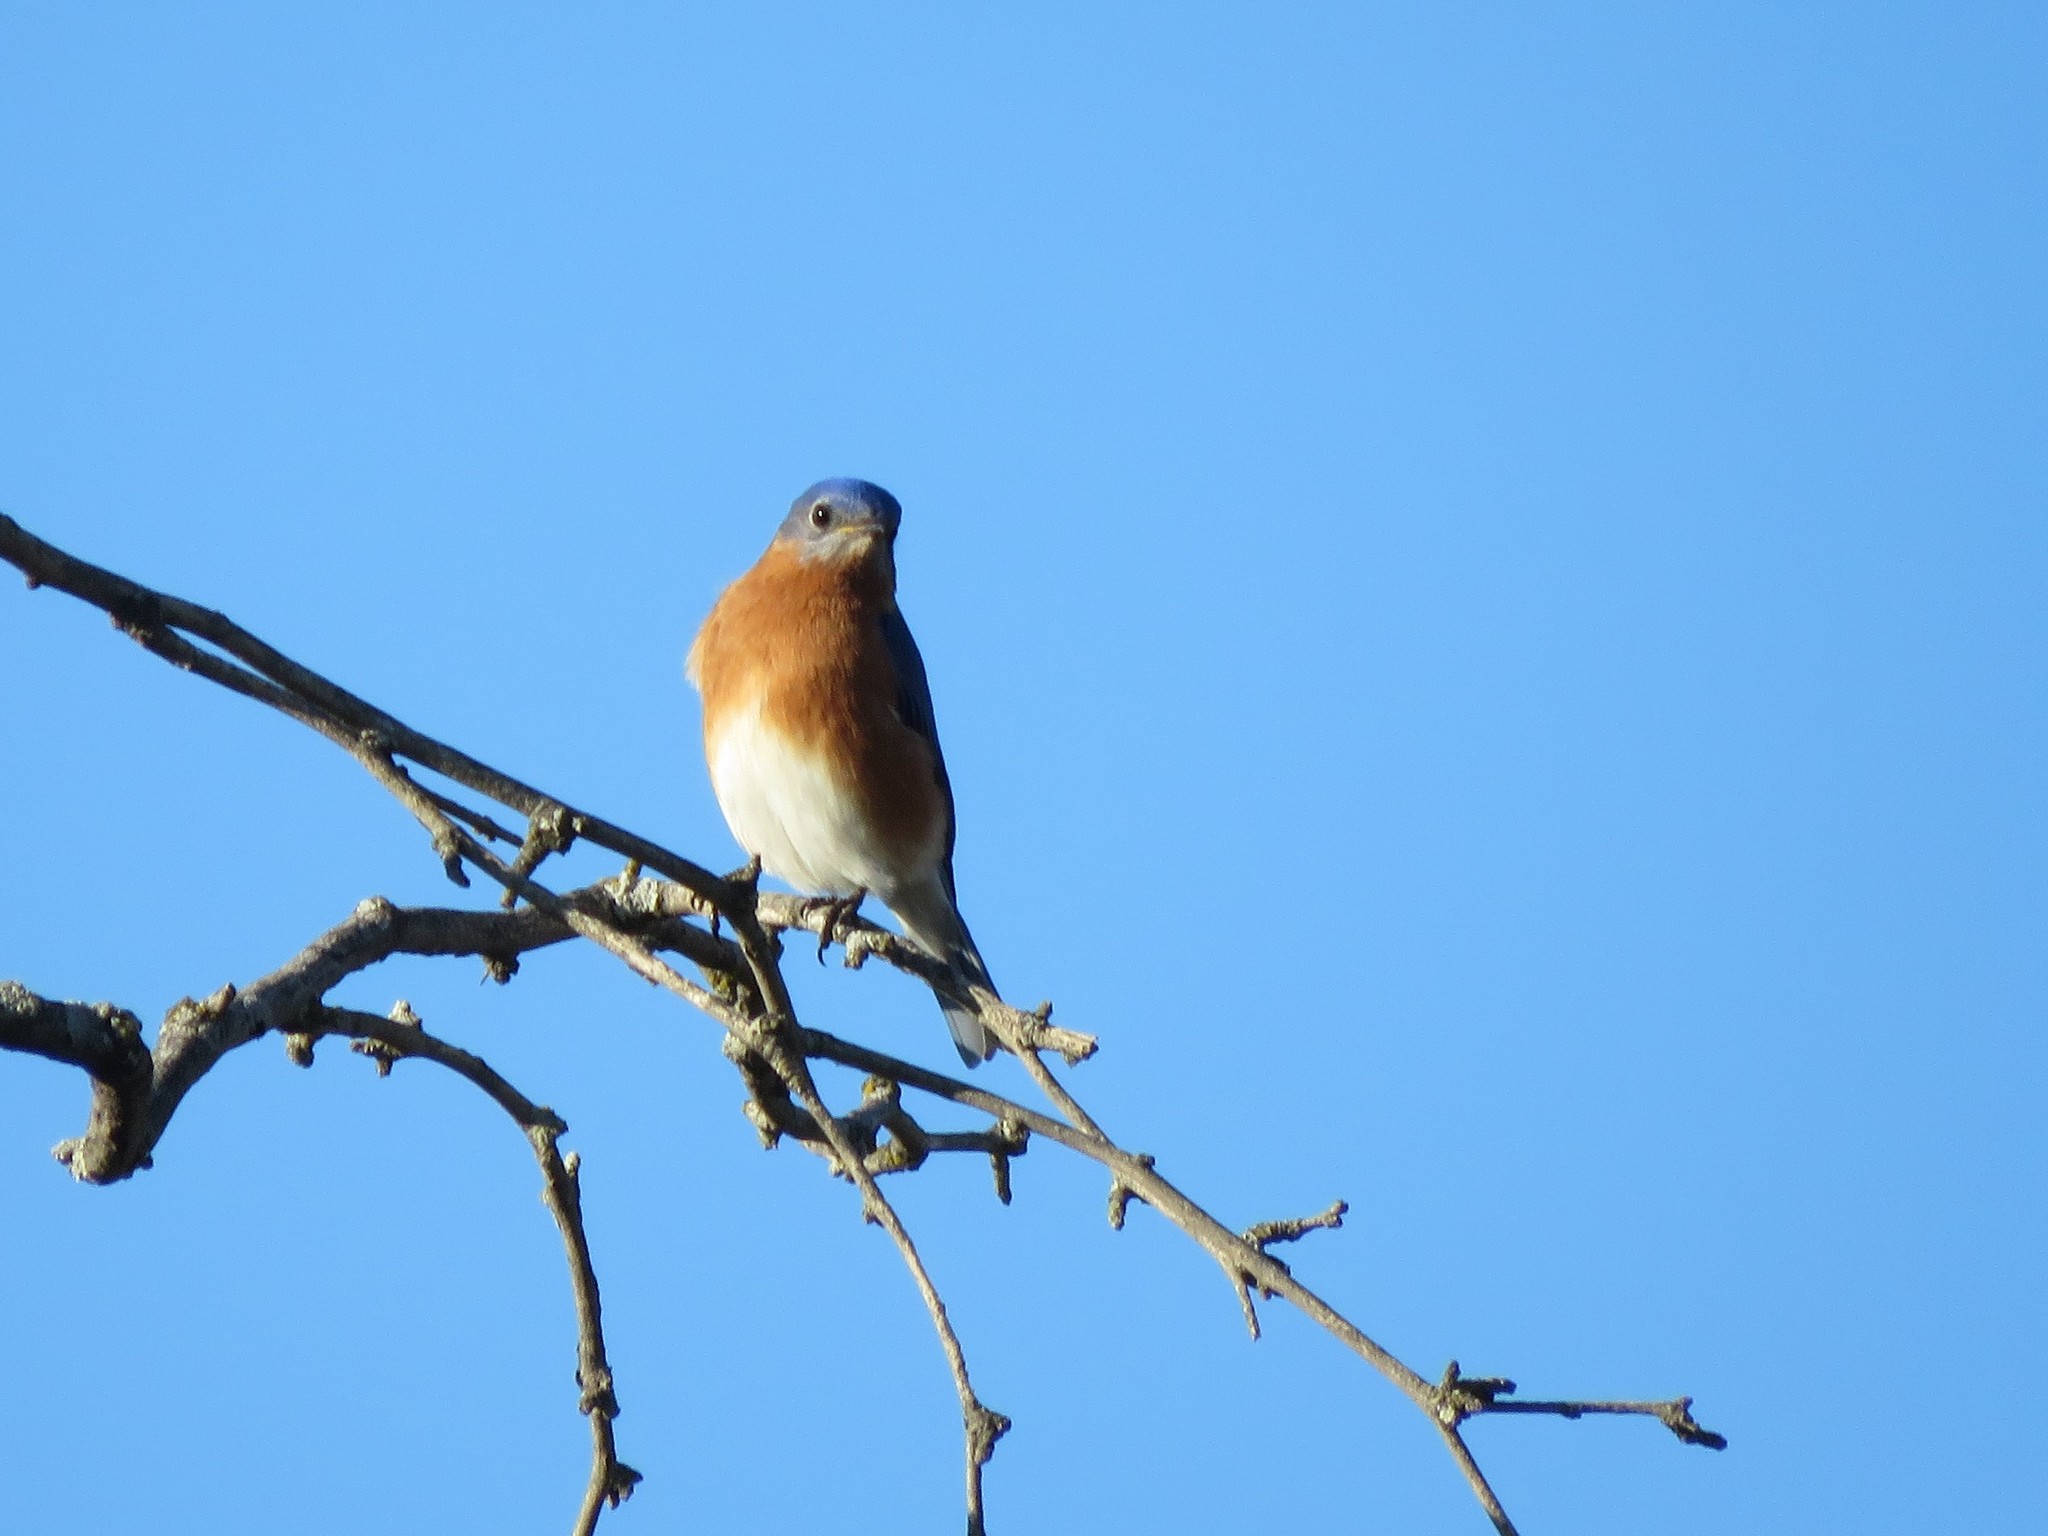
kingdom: Animalia
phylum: Chordata
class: Aves
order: Passeriformes
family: Turdidae
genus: Sialia
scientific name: Sialia sialis
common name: Eastern bluebird
